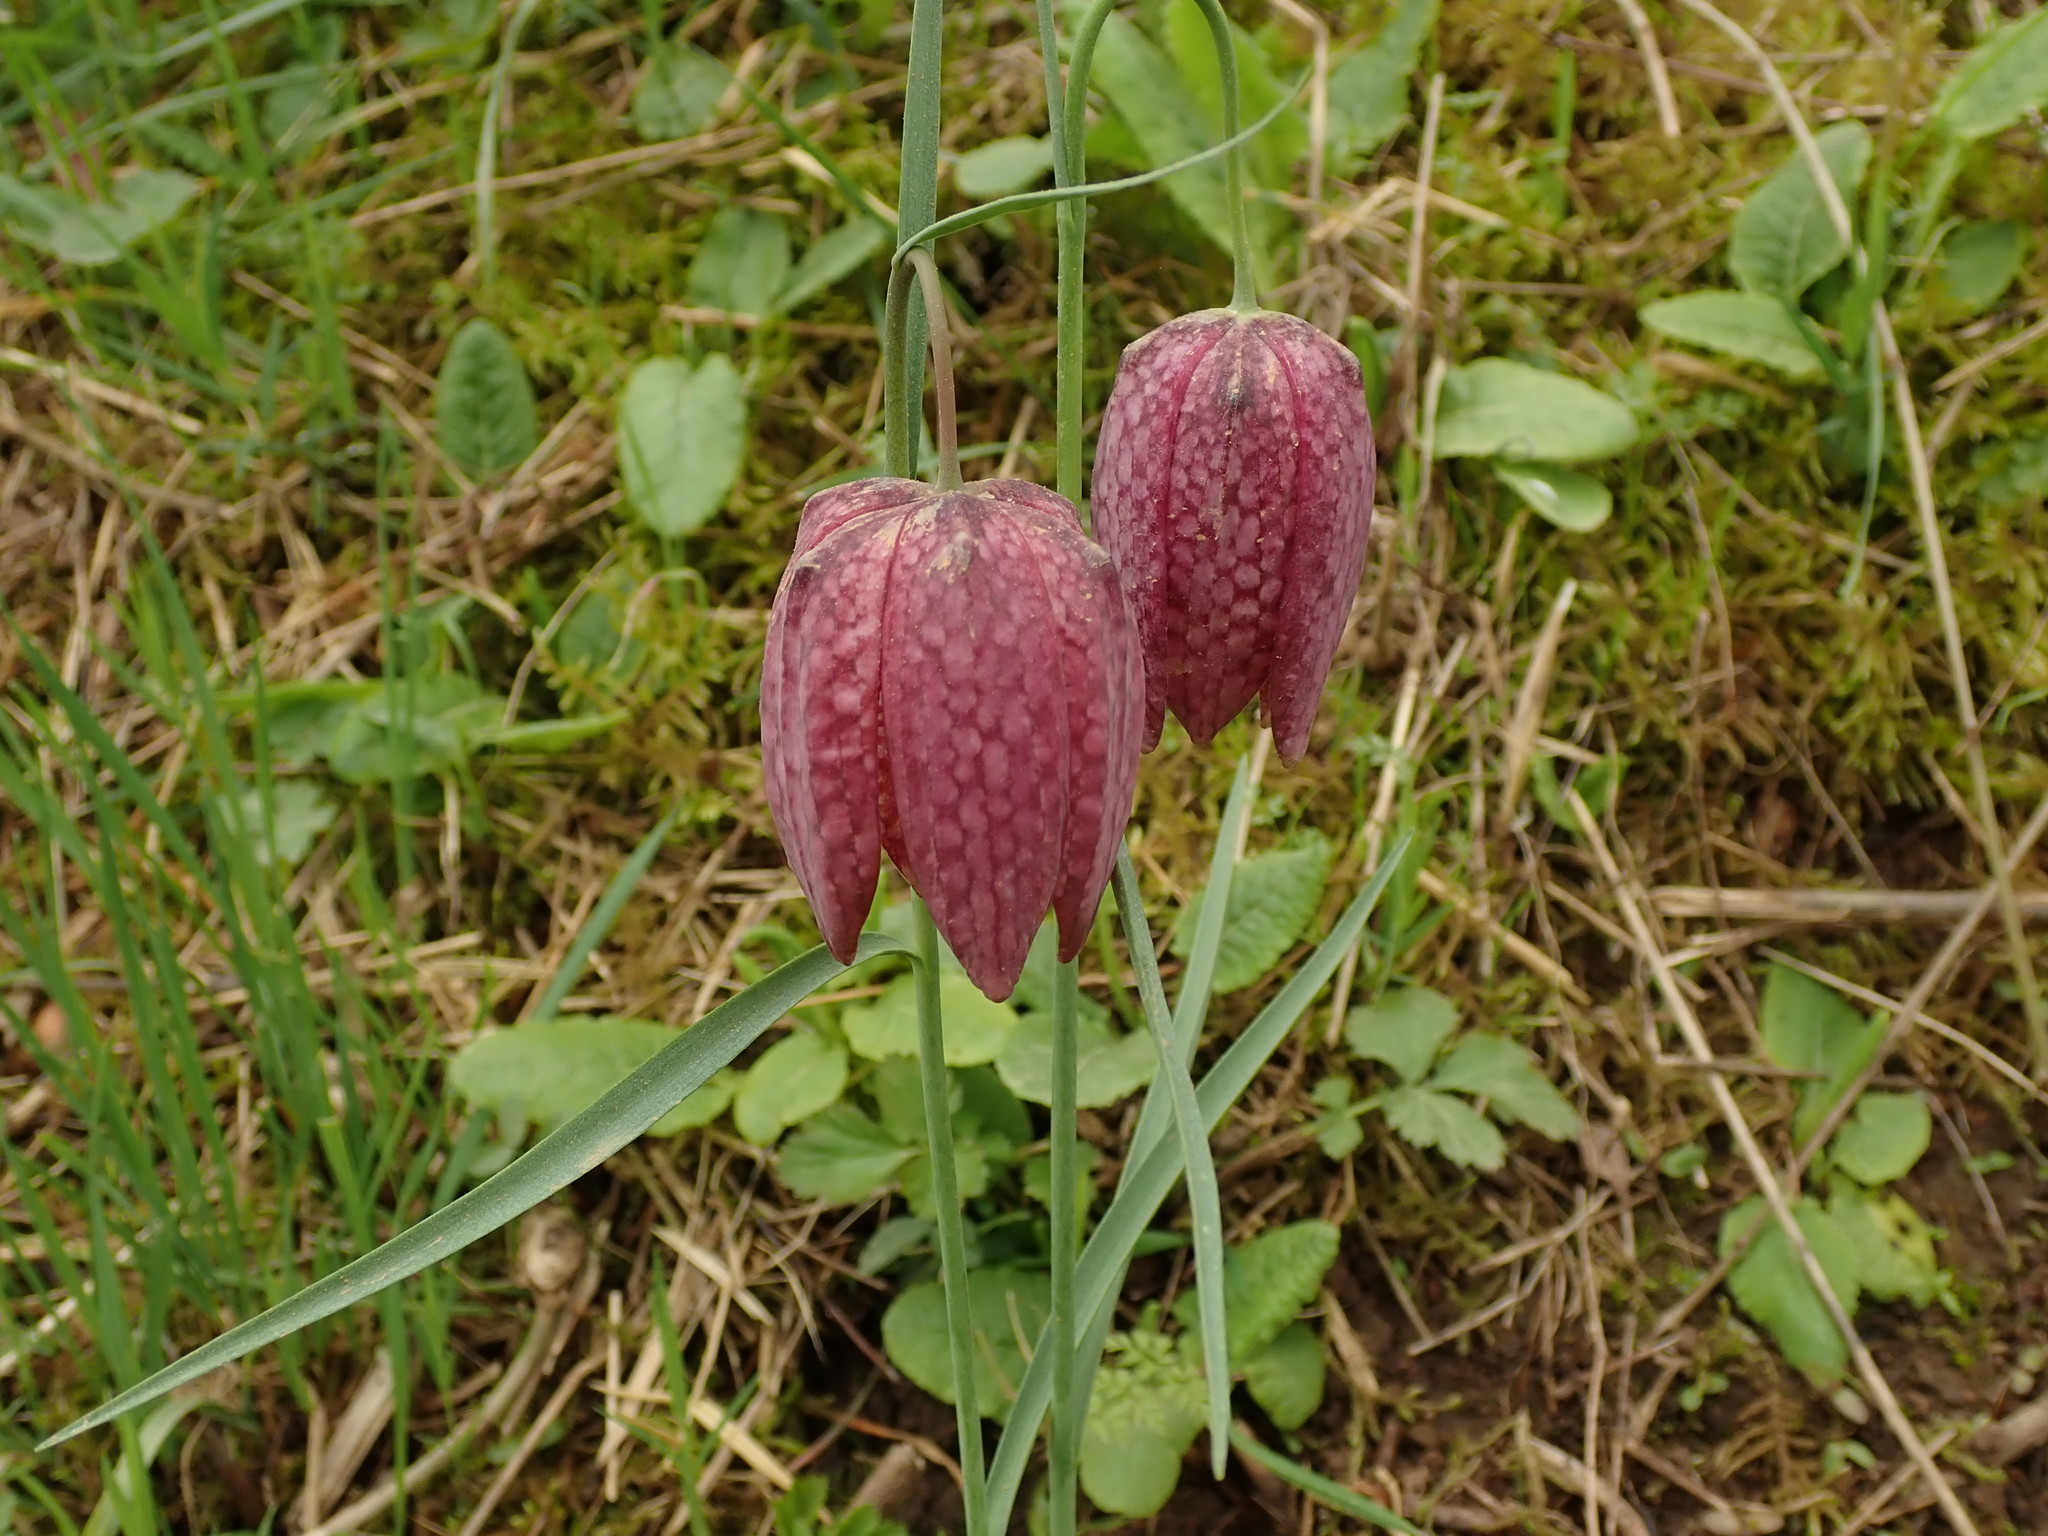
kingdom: Plantae
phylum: Tracheophyta
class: Liliopsida
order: Liliales
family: Liliaceae
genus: Fritillaria
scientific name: Fritillaria meleagris
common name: Fritillary
